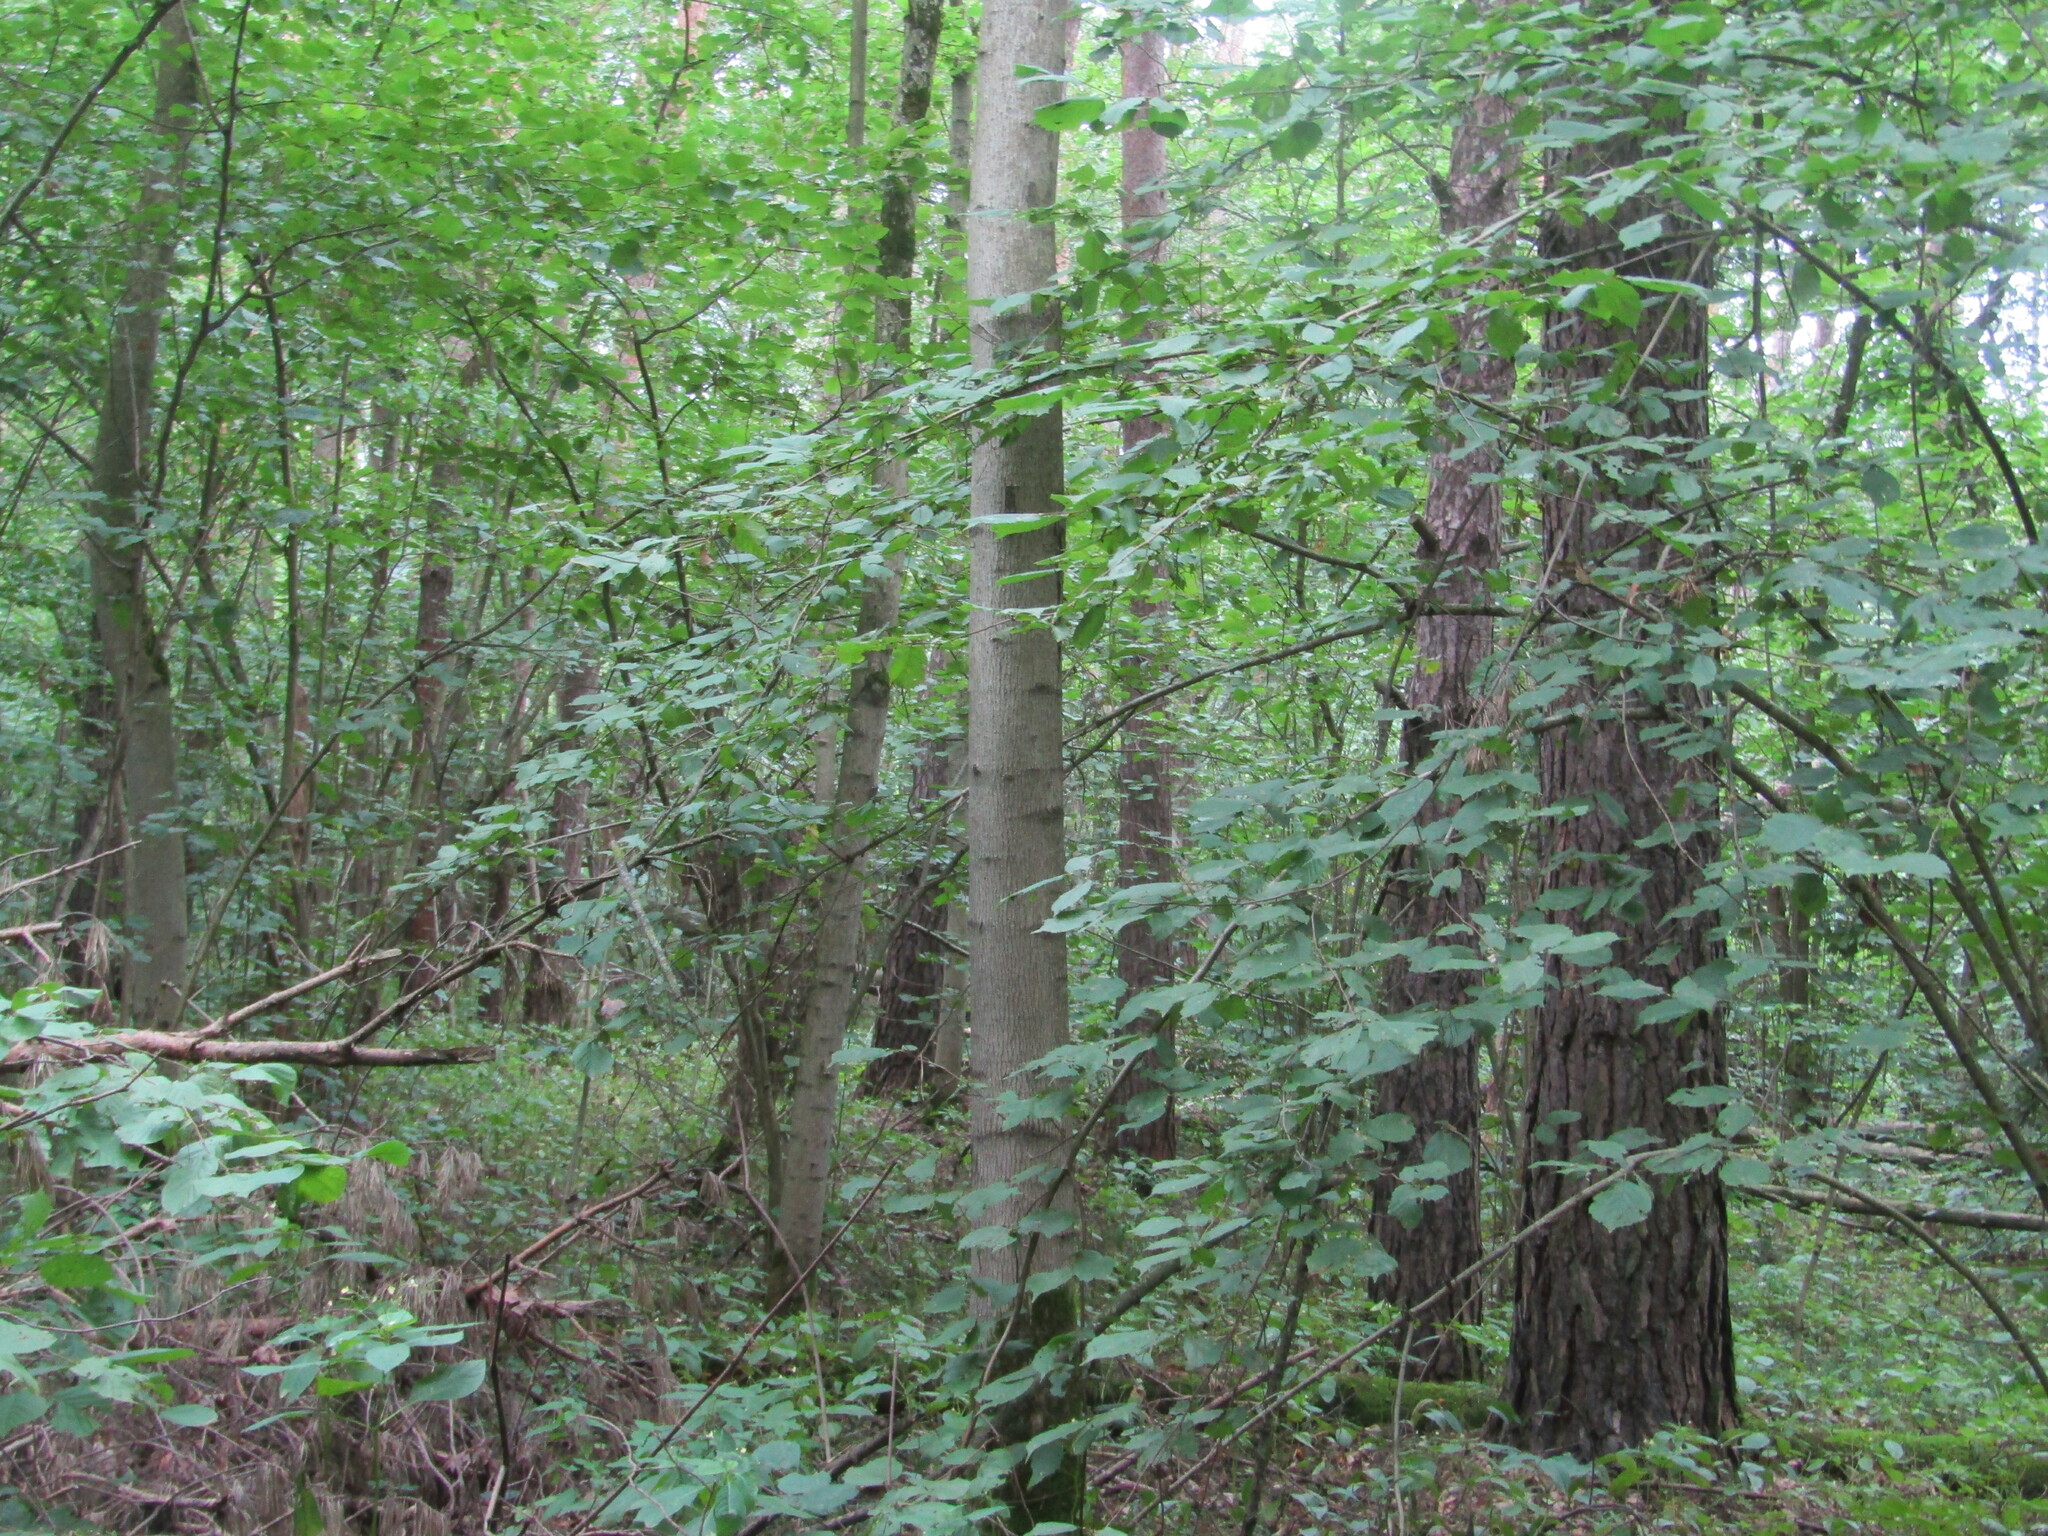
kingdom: Plantae
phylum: Tracheophyta
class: Magnoliopsida
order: Sapindales
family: Sapindaceae
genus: Acer
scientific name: Acer platanoides
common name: Norway maple
